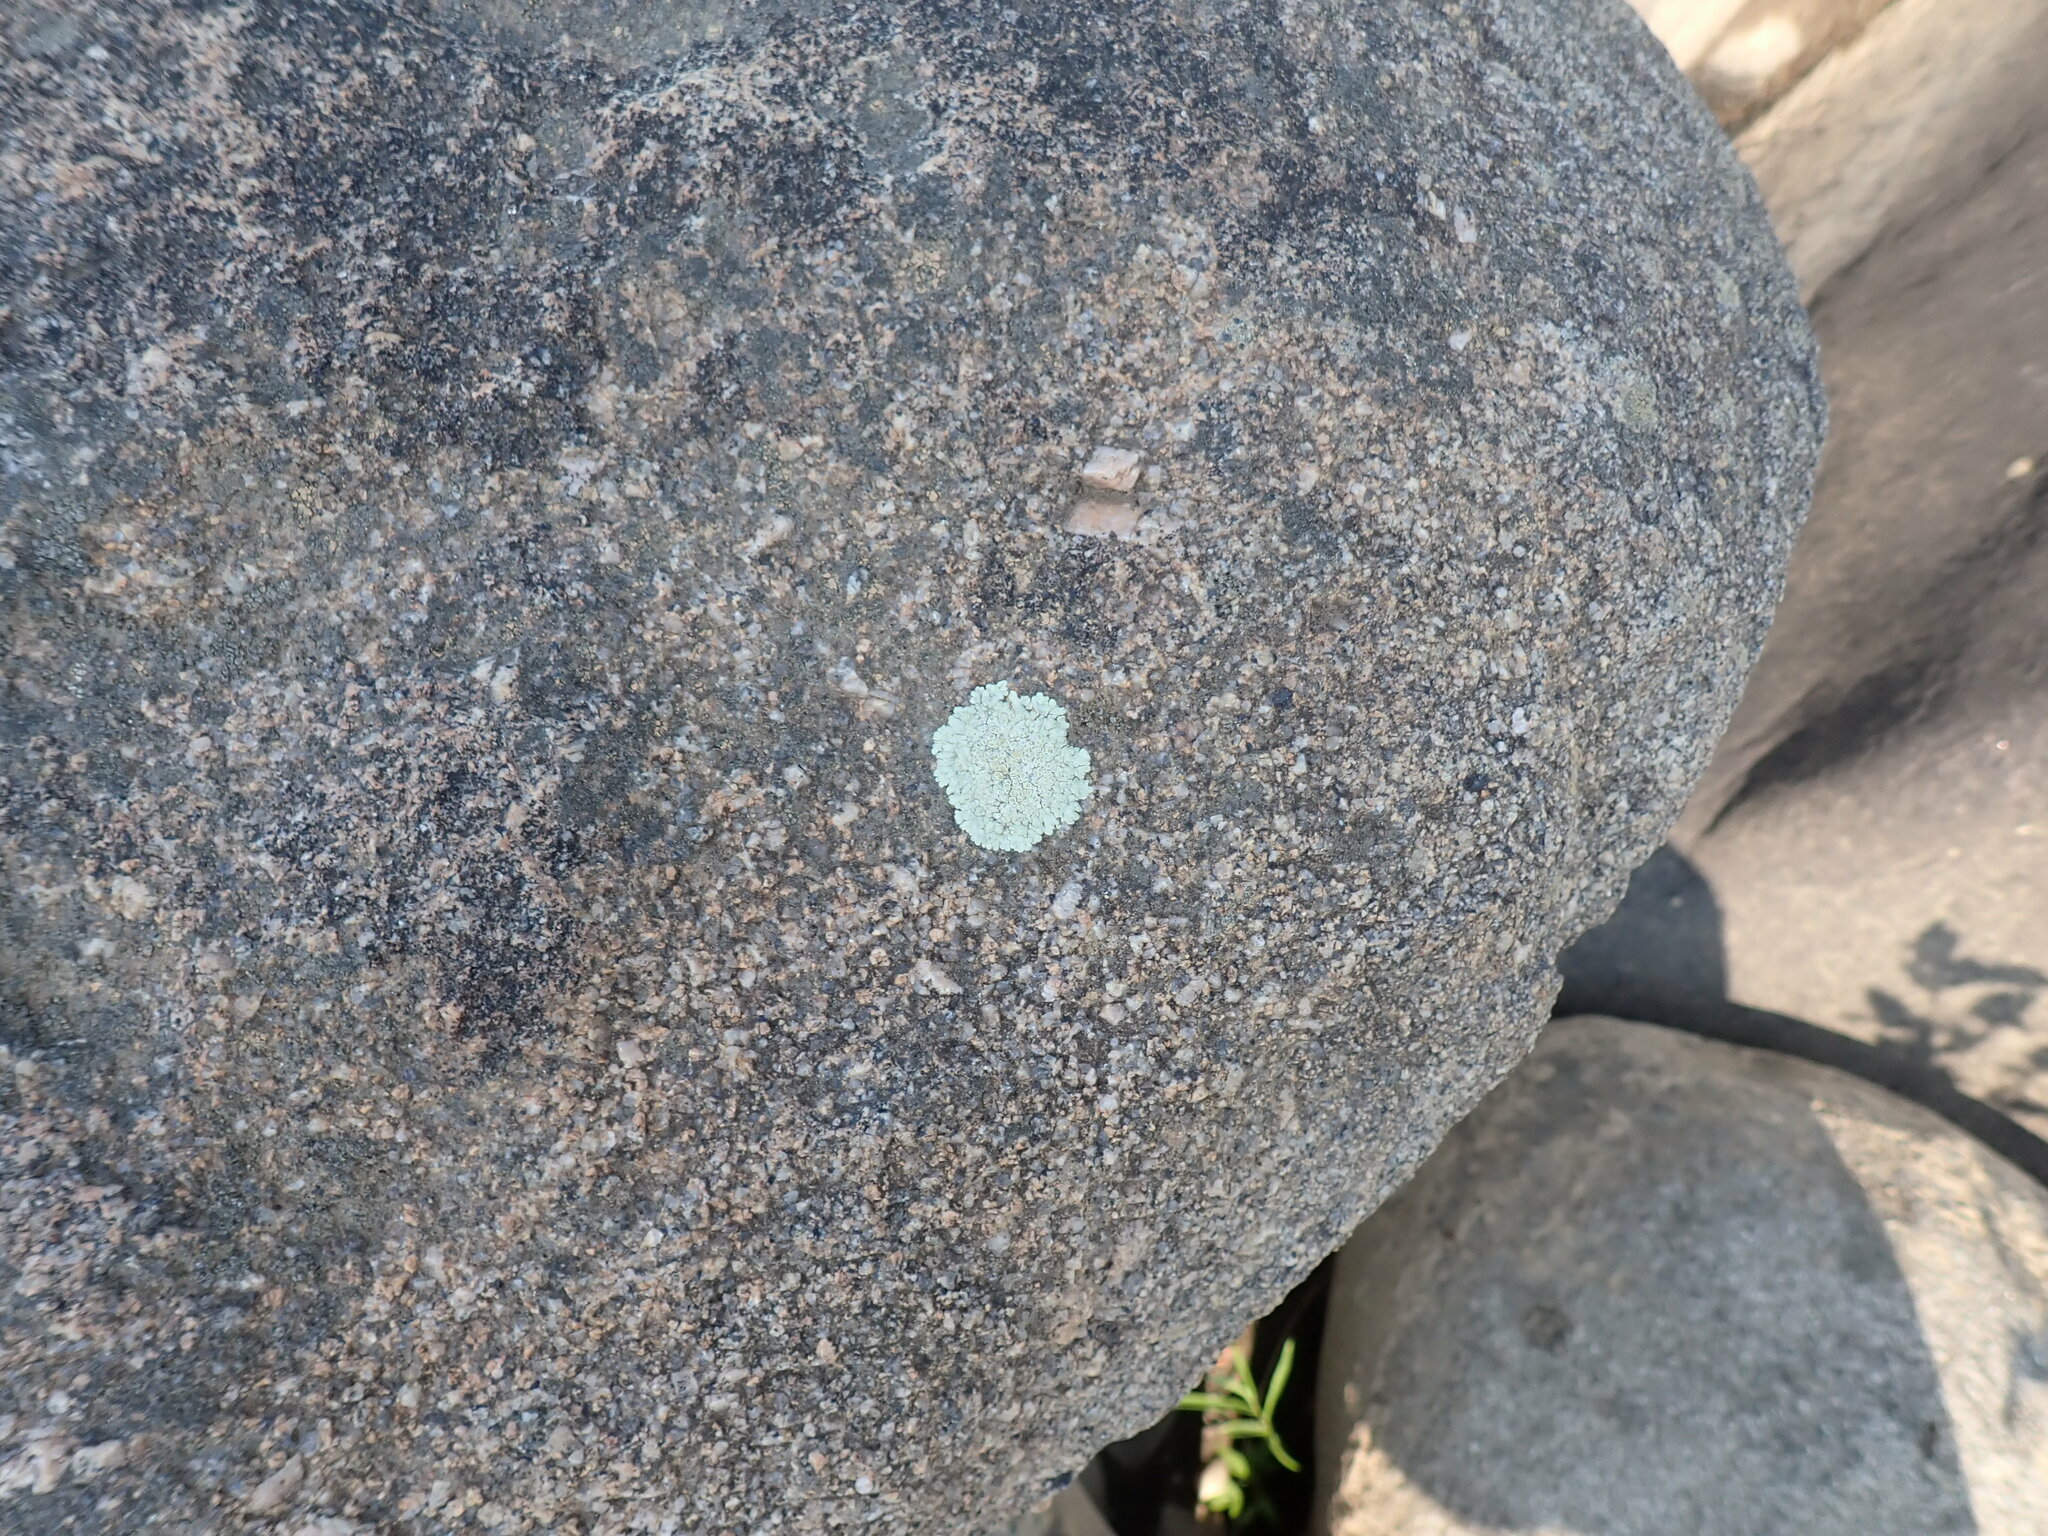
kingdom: Fungi
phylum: Ascomycota
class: Lecanoromycetes
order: Lecanorales
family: Lecanoraceae
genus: Protoparmeliopsis
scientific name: Protoparmeliopsis muralis
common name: Stonewall rim lichen
